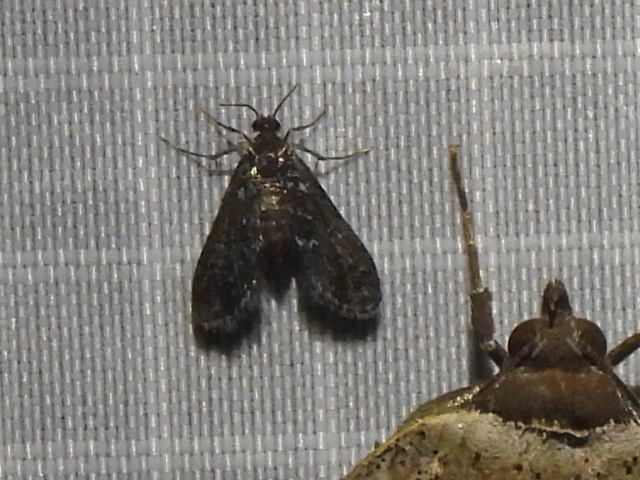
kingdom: Animalia
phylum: Arthropoda
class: Insecta
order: Lepidoptera
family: Crambidae
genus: Elophila
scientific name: Elophila tinealis
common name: Black duckweed moth
